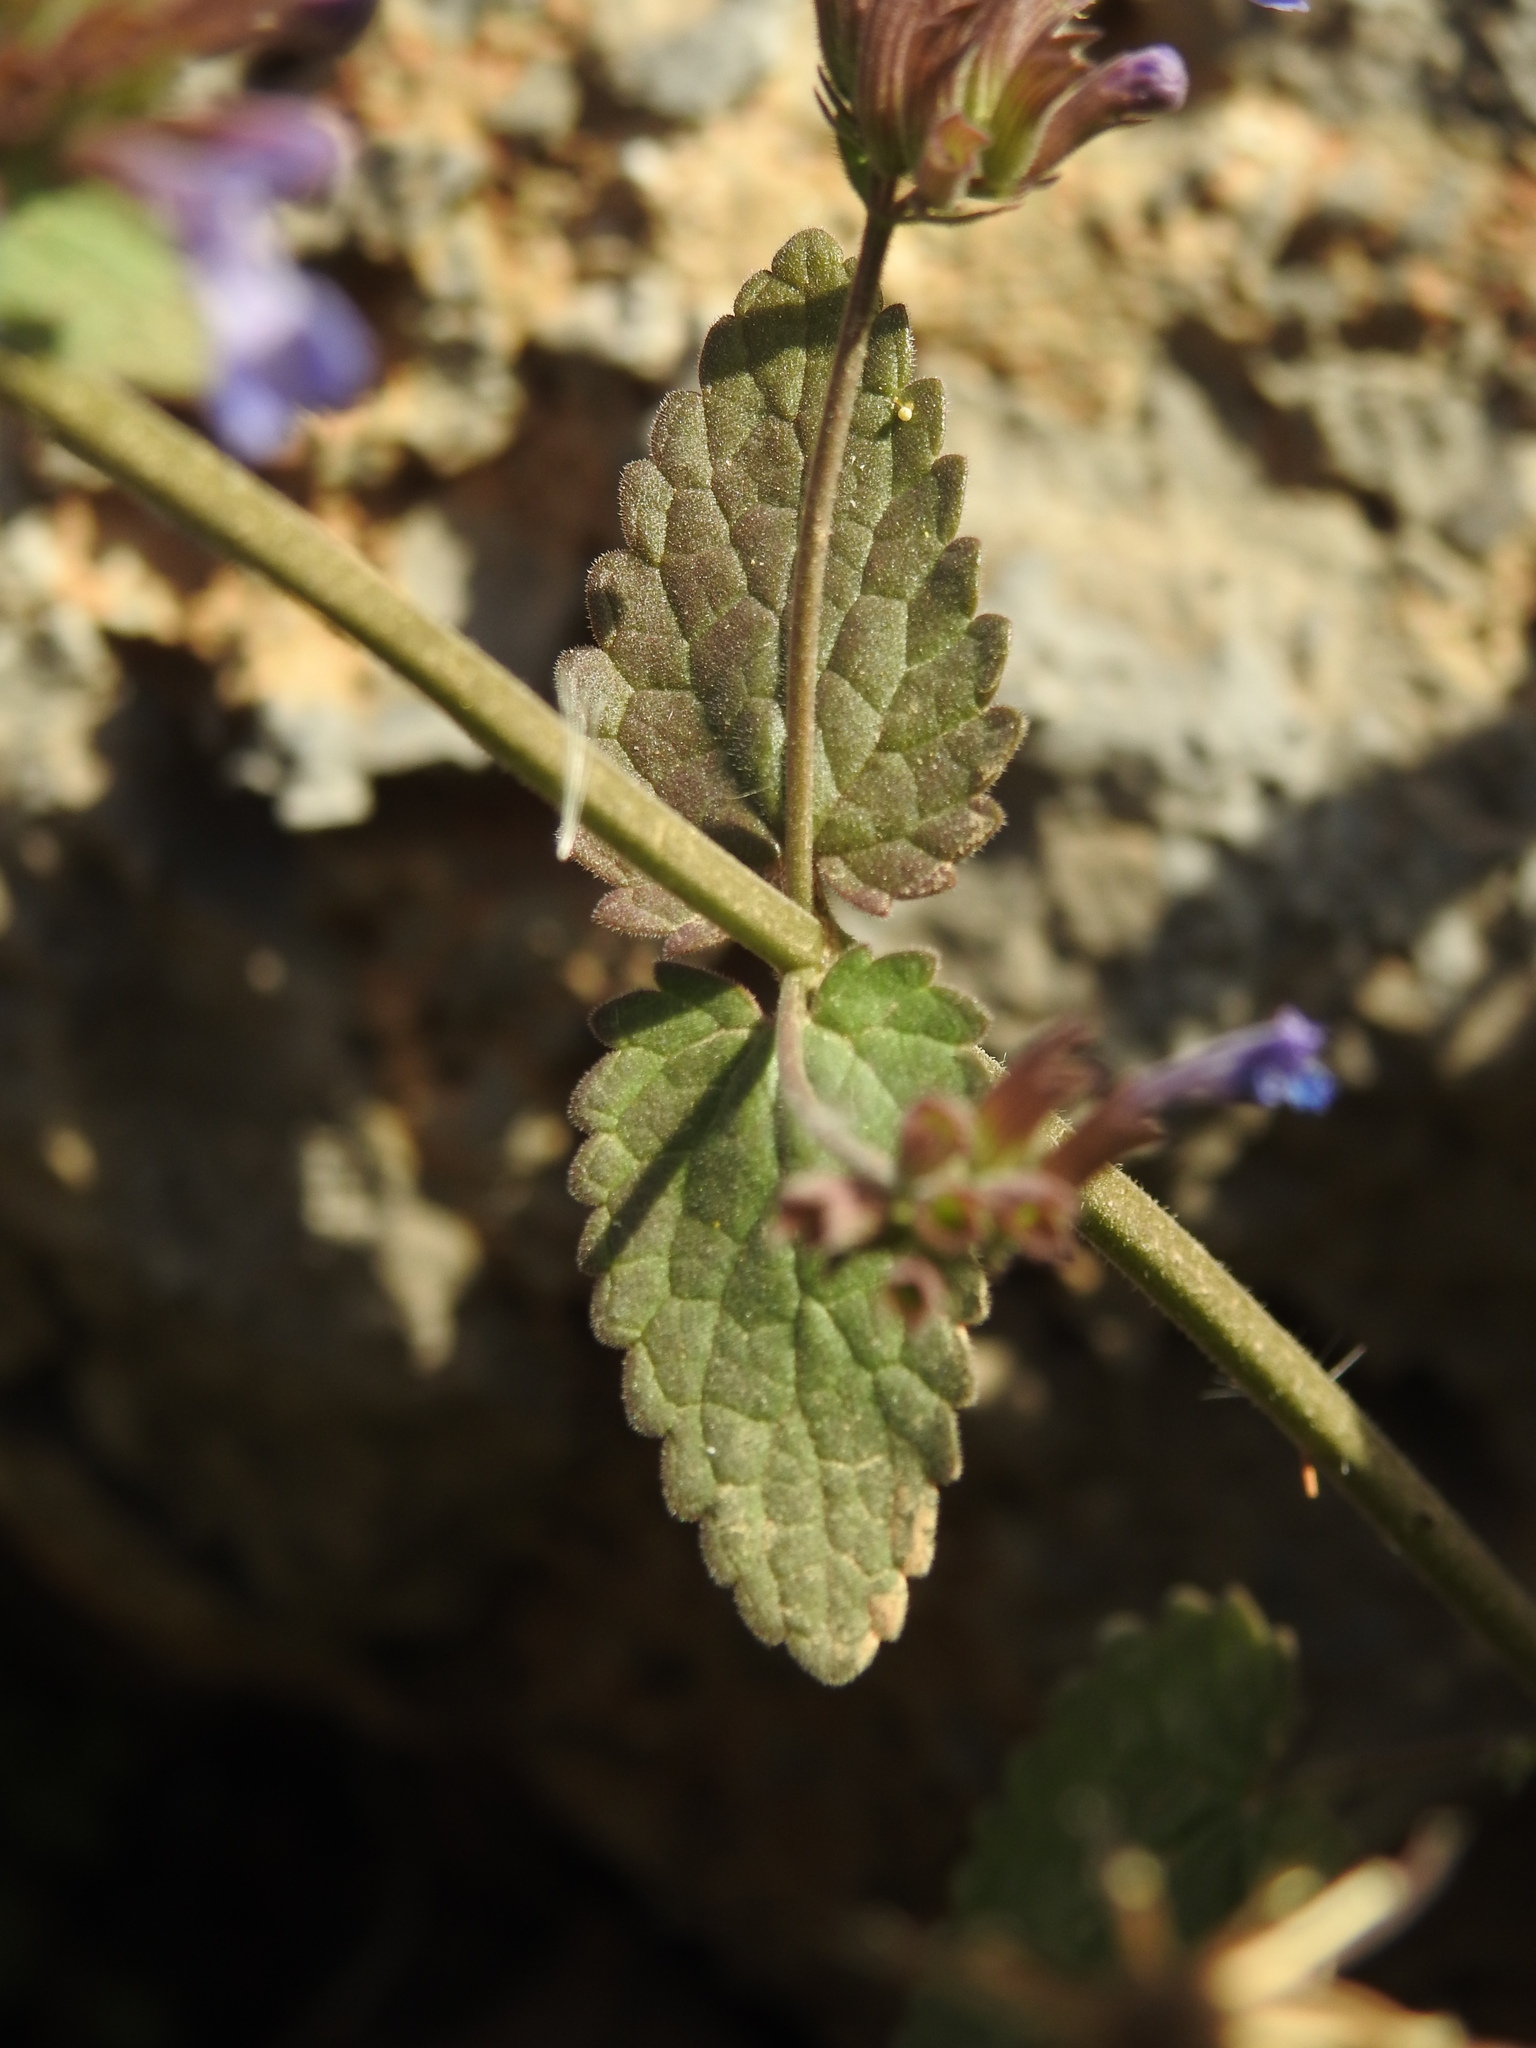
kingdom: Plantae
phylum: Tracheophyta
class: Magnoliopsida
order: Lamiales
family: Lamiaceae
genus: Nepeta
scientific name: Nepeta melissifolia
